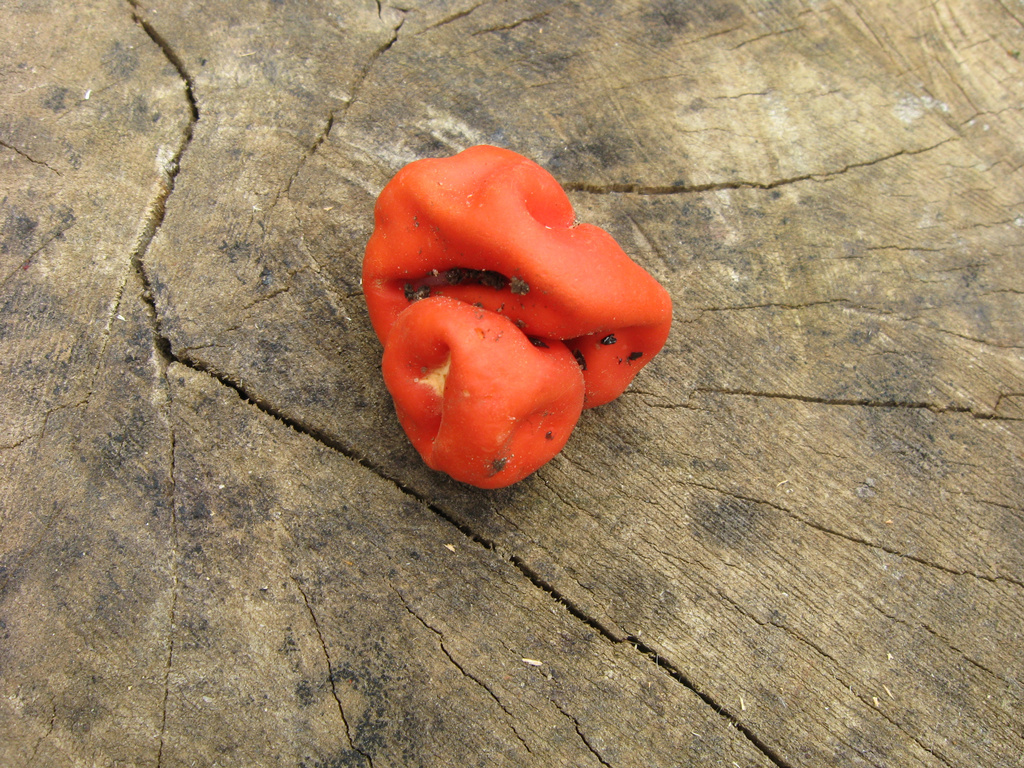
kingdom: Fungi
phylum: Ascomycota
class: Pezizomycetes
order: Pezizales
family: Pyronemataceae
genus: Paurocotylis
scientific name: Paurocotylis pila
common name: Scarlet berry truffle
